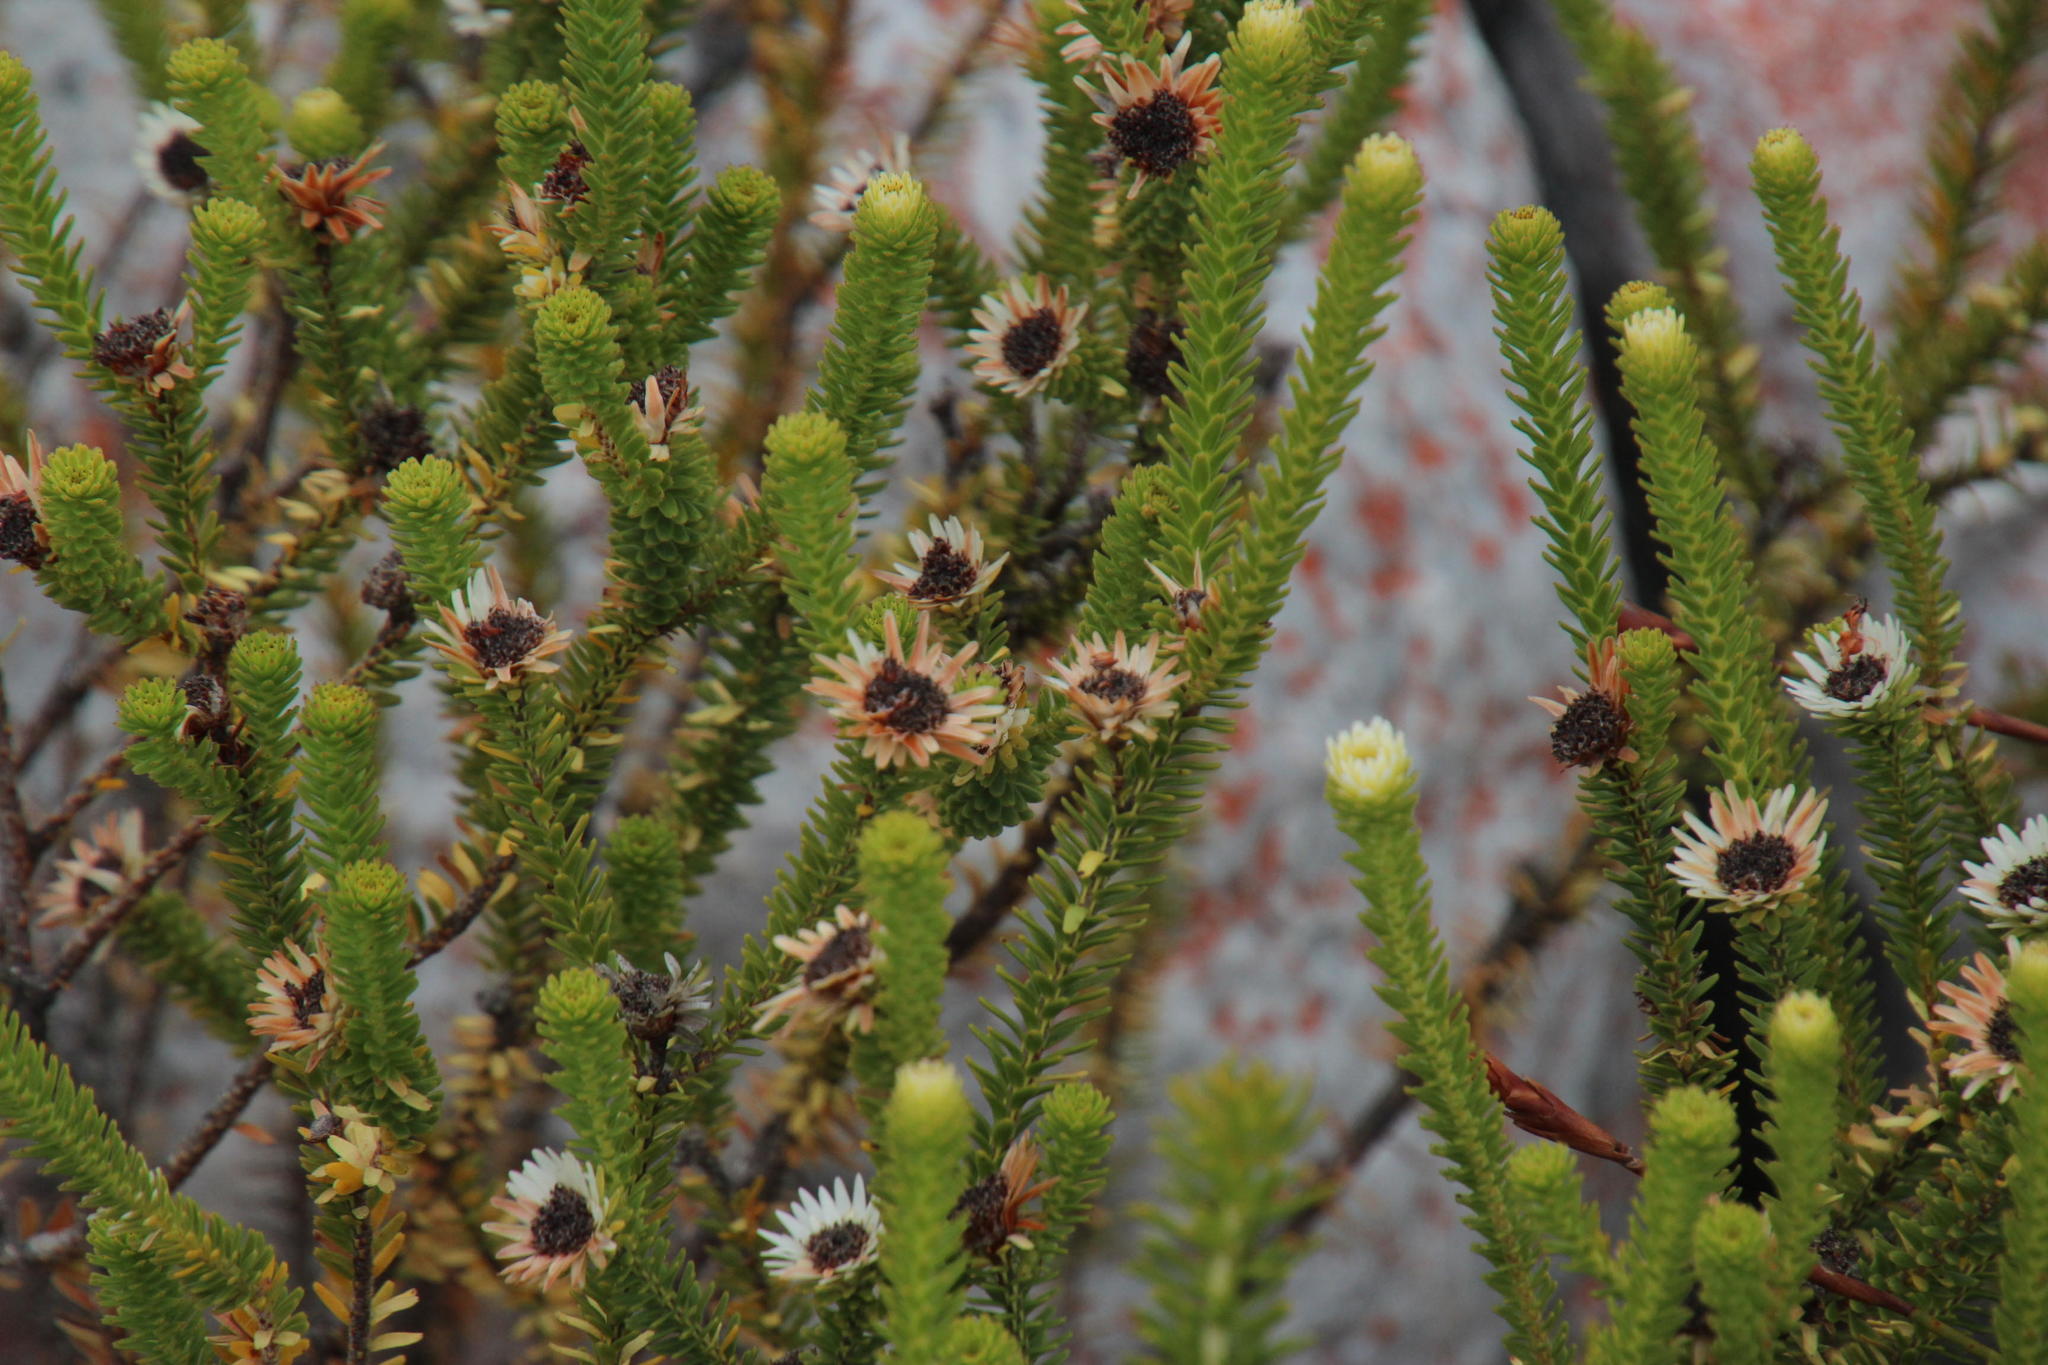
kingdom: Plantae
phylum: Tracheophyta
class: Magnoliopsida
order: Bruniales
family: Bruniaceae
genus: Staavia
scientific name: Staavia dodii
